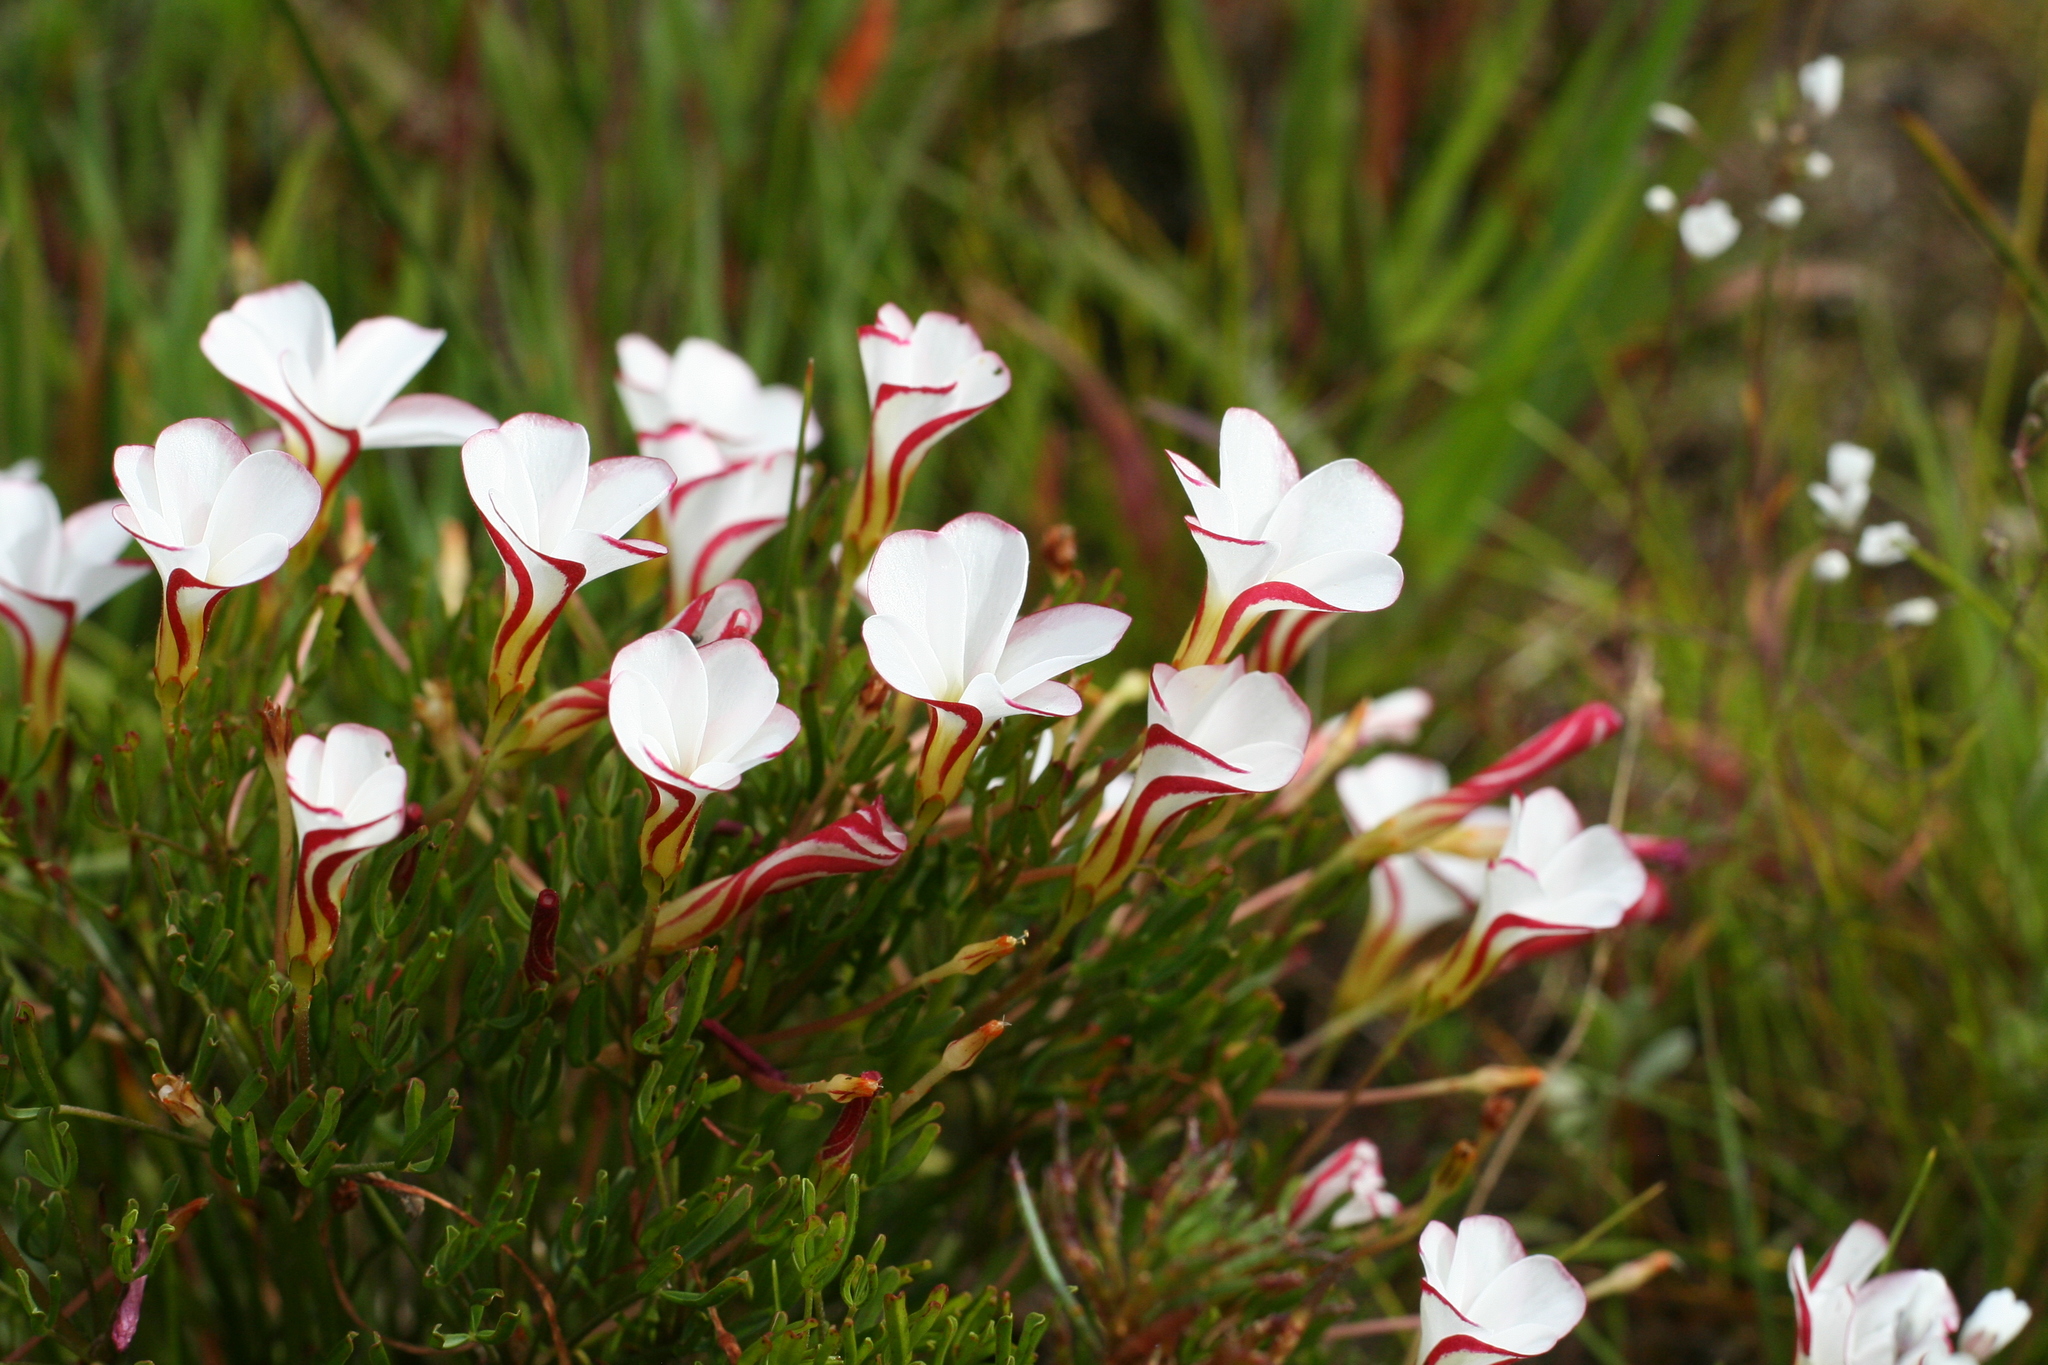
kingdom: Plantae
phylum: Tracheophyta
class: Magnoliopsida
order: Oxalidales
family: Oxalidaceae
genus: Oxalis
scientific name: Oxalis versicolor
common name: Peppermint rock oxalis
